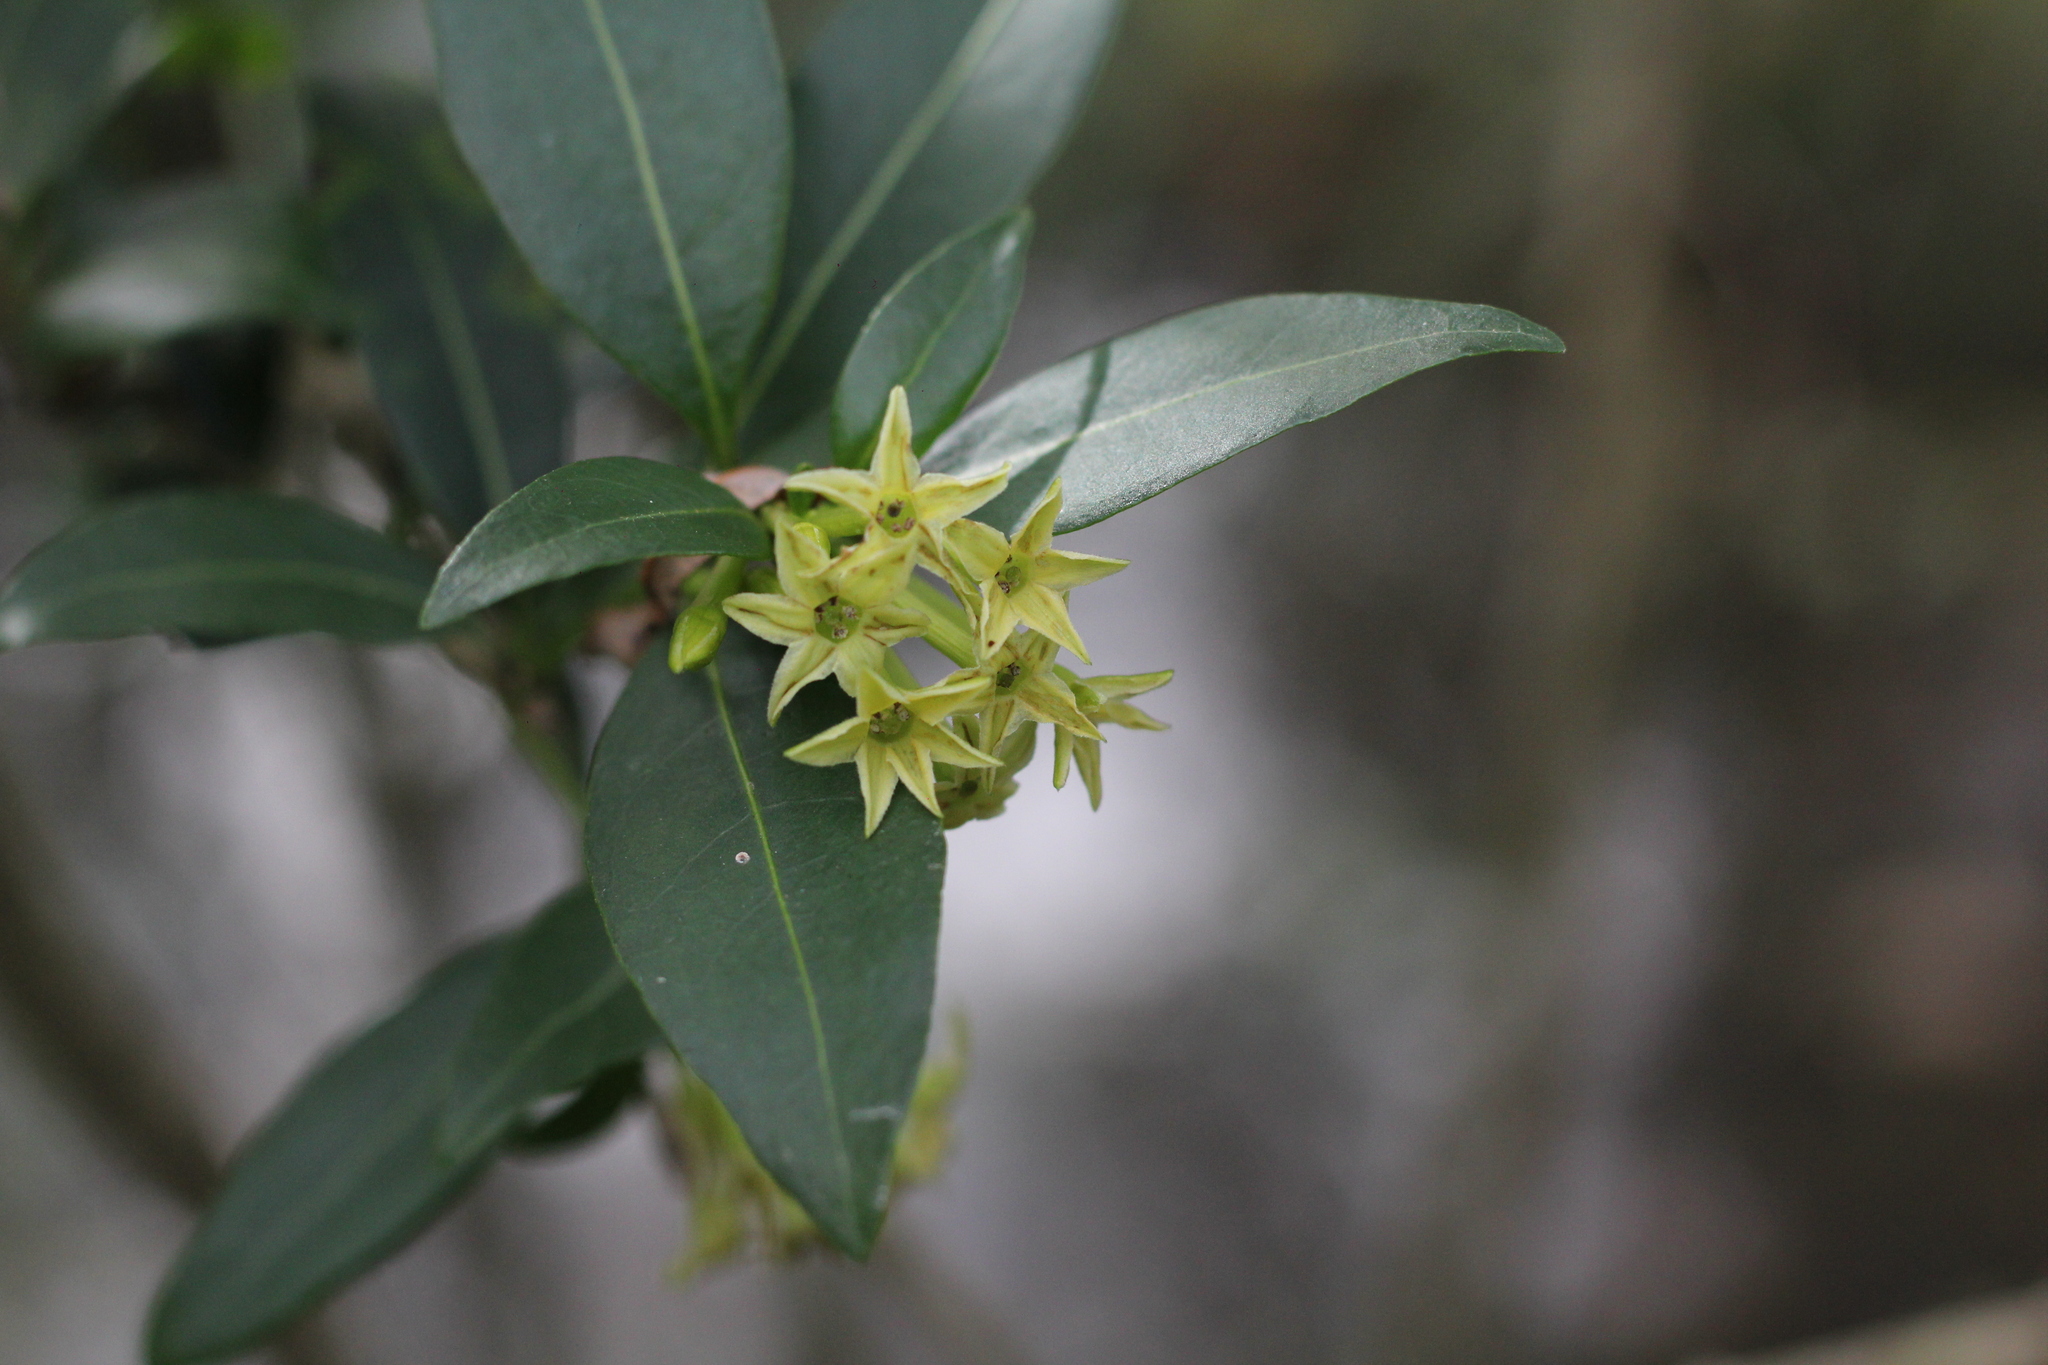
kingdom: Plantae
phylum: Tracheophyta
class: Magnoliopsida
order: Solanales
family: Solanaceae
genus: Cestrum
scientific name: Cestrum parqui
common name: Chilean cestrum
